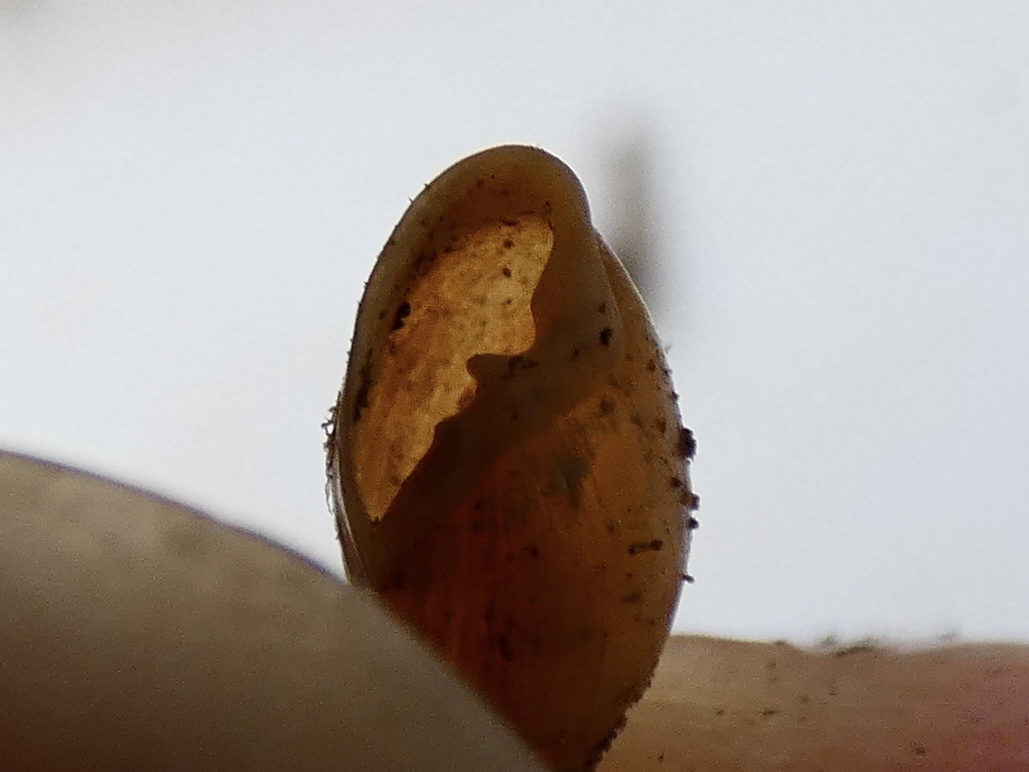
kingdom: Animalia
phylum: Mollusca
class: Gastropoda
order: Ellobiida
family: Ellobiidae
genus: Myosotella
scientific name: Myosotella myosotis
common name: Mouse-eared snail
